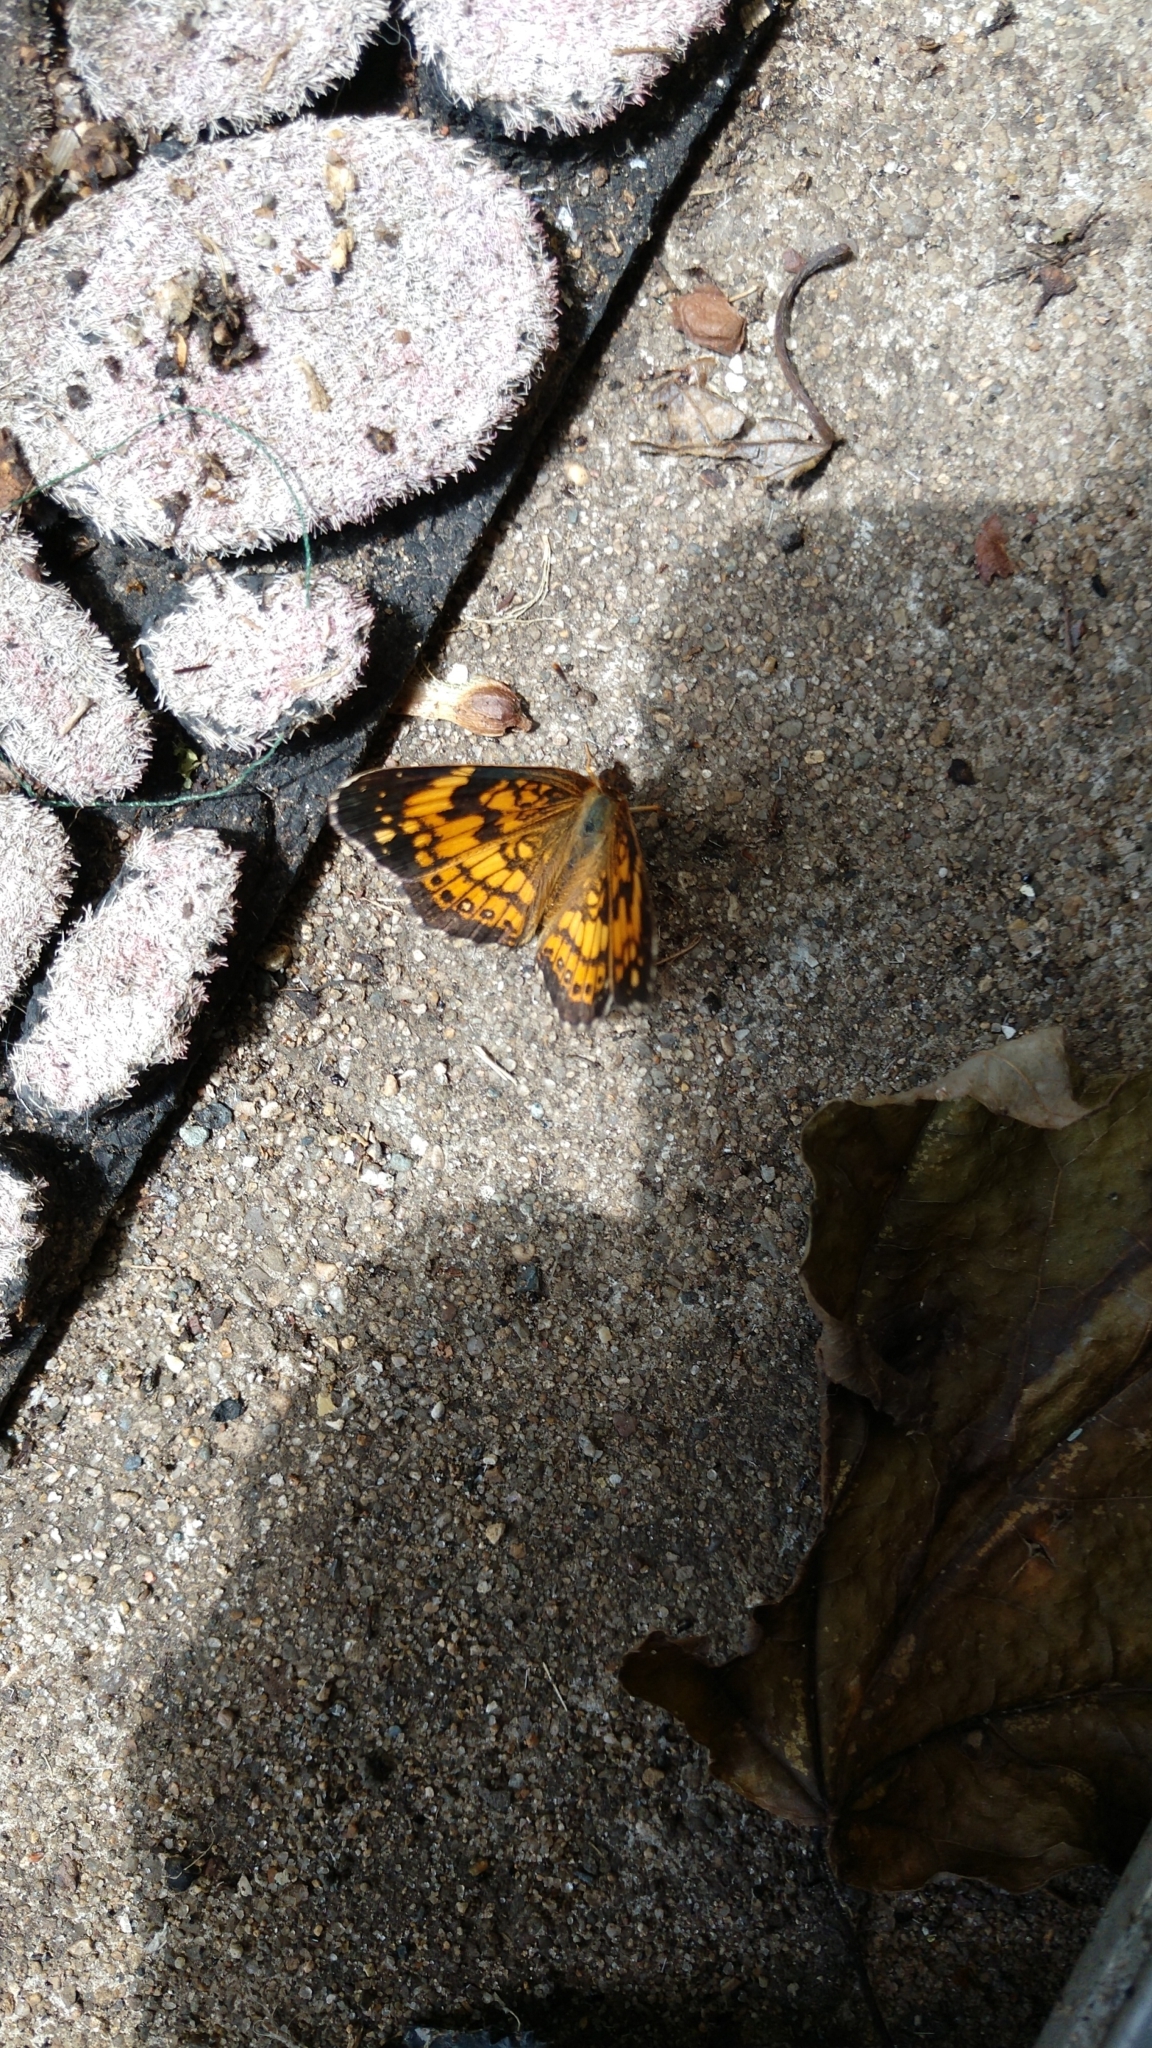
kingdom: Animalia
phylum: Arthropoda
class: Insecta
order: Lepidoptera
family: Nymphalidae
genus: Chlosyne
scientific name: Chlosyne nycteis
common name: Silvery checkerspot
